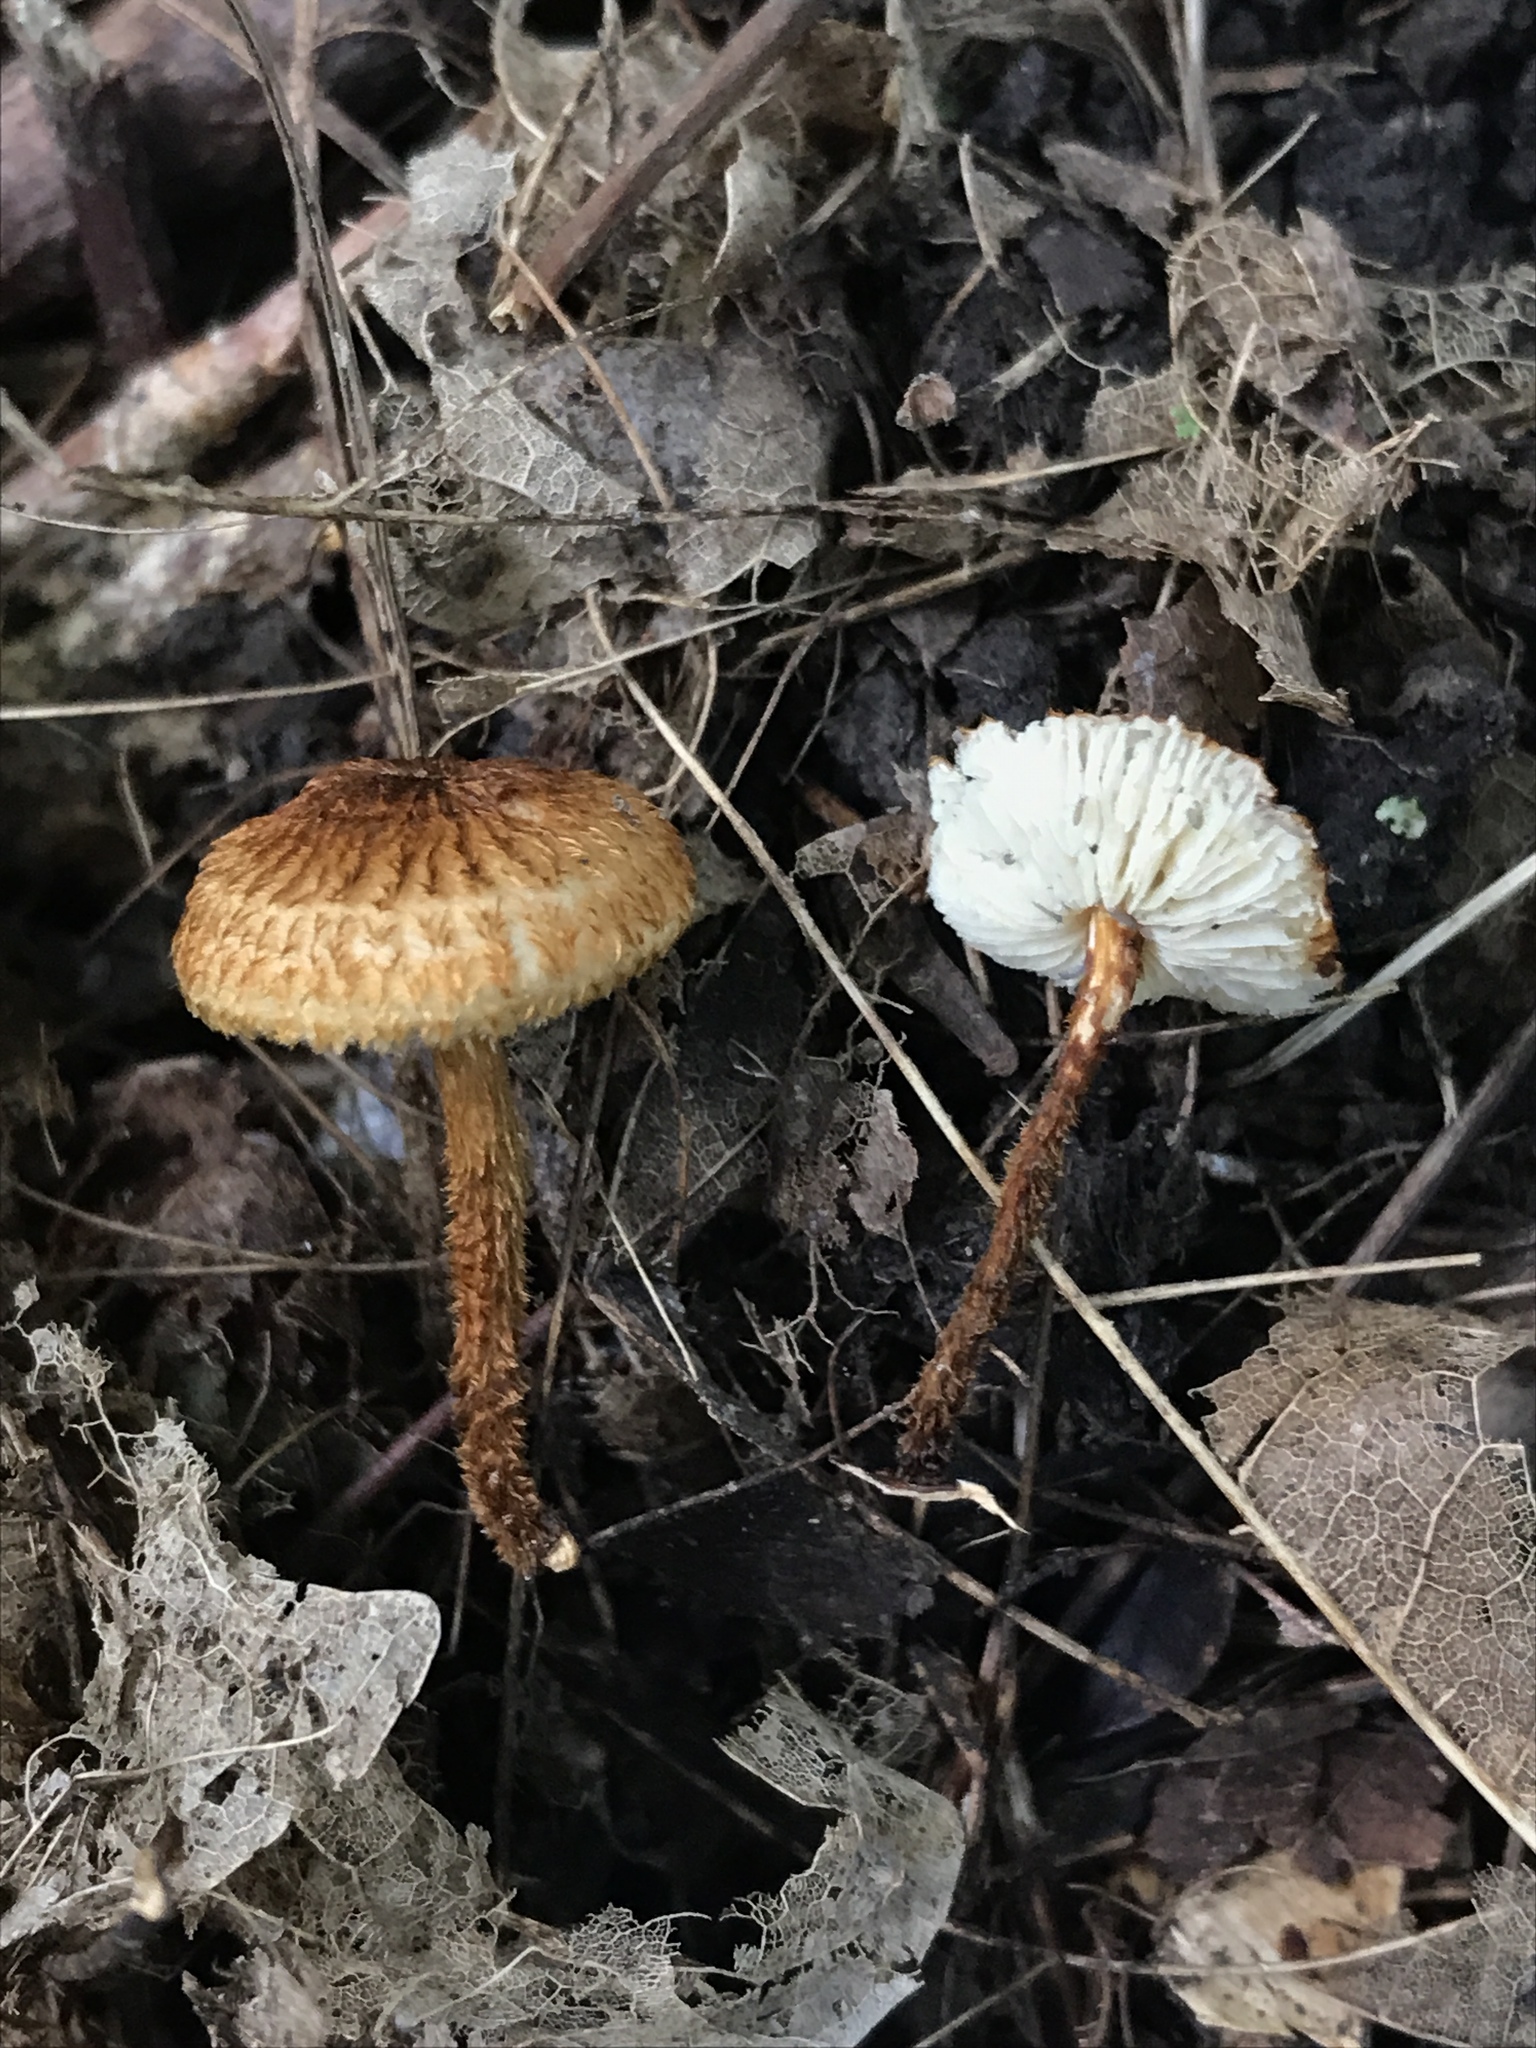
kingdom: Fungi
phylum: Basidiomycota
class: Agaricomycetes
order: Agaricales
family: Tricholomataceae
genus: Collybia
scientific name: Collybia zonata
